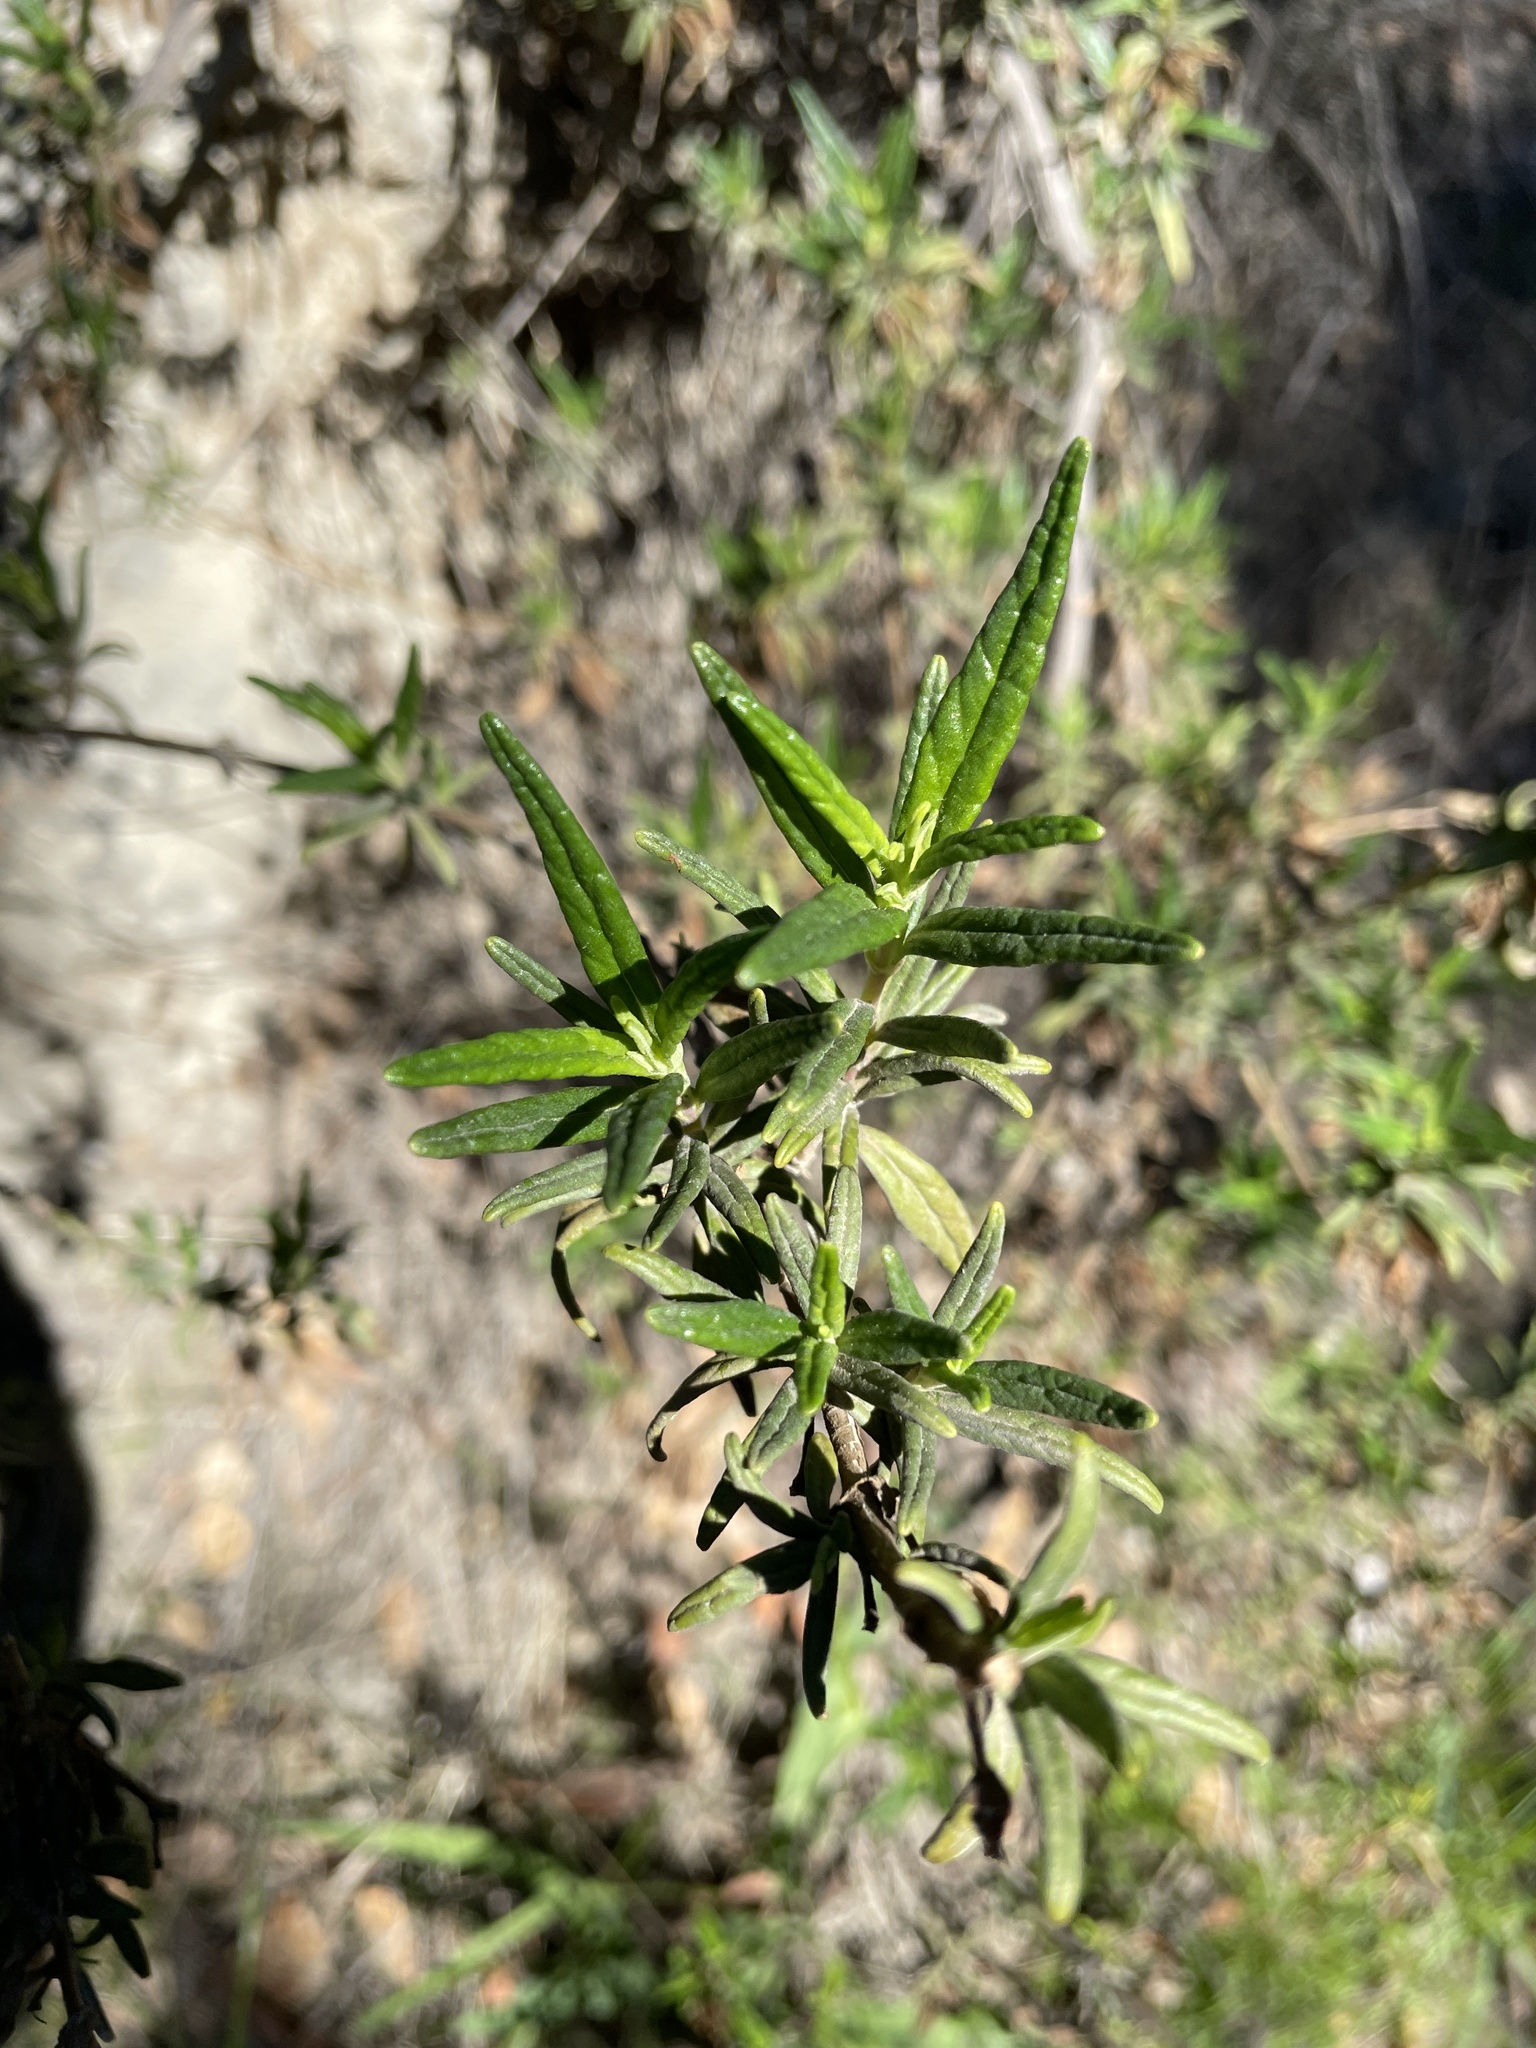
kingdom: Plantae
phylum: Tracheophyta
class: Magnoliopsida
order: Lamiales
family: Phrymaceae
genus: Diplacus
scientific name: Diplacus aurantiacus
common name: Bush monkey-flower
